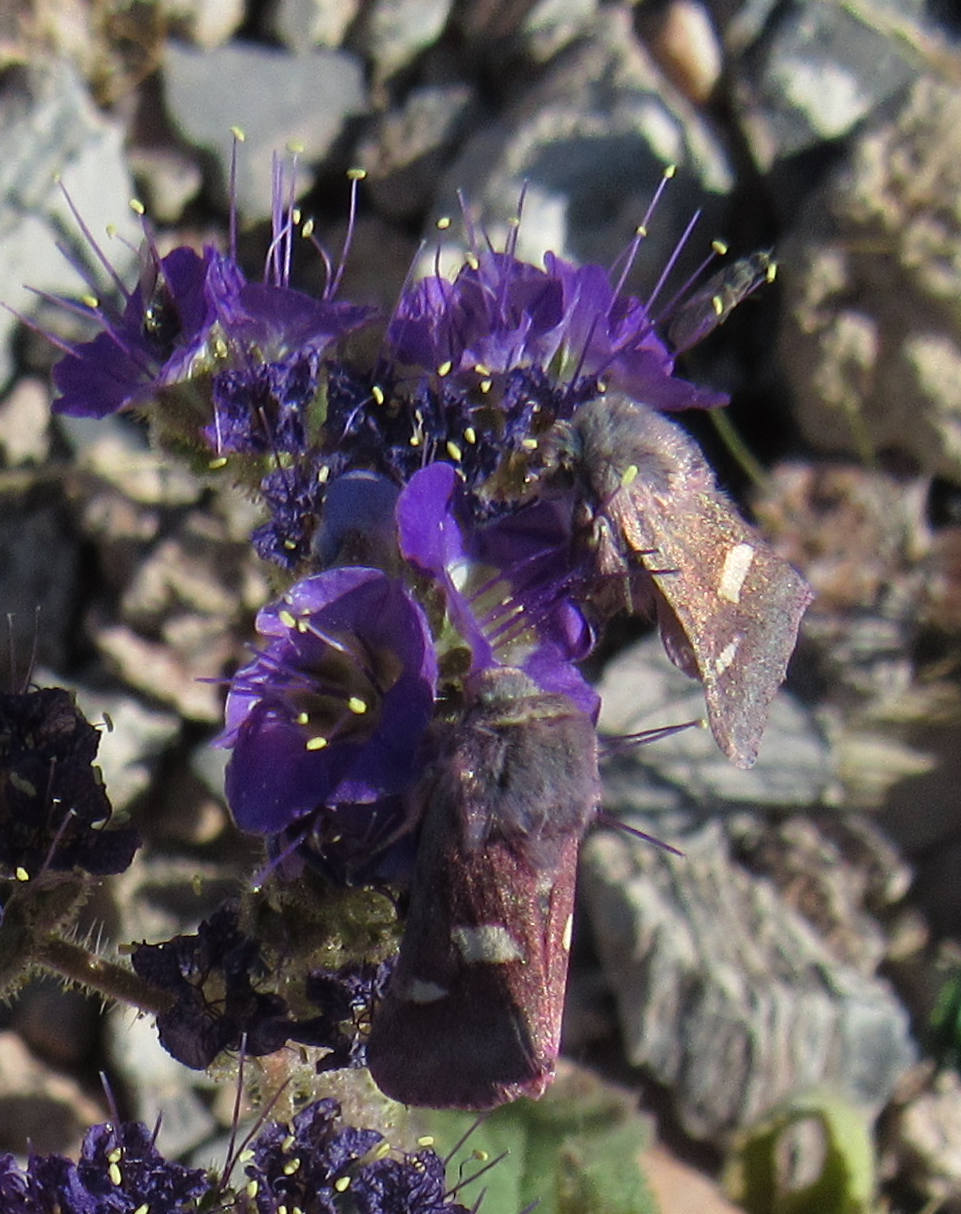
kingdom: Animalia
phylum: Arthropoda
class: Insecta
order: Lepidoptera
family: Noctuidae
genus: Baptarma
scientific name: Baptarma felicita
